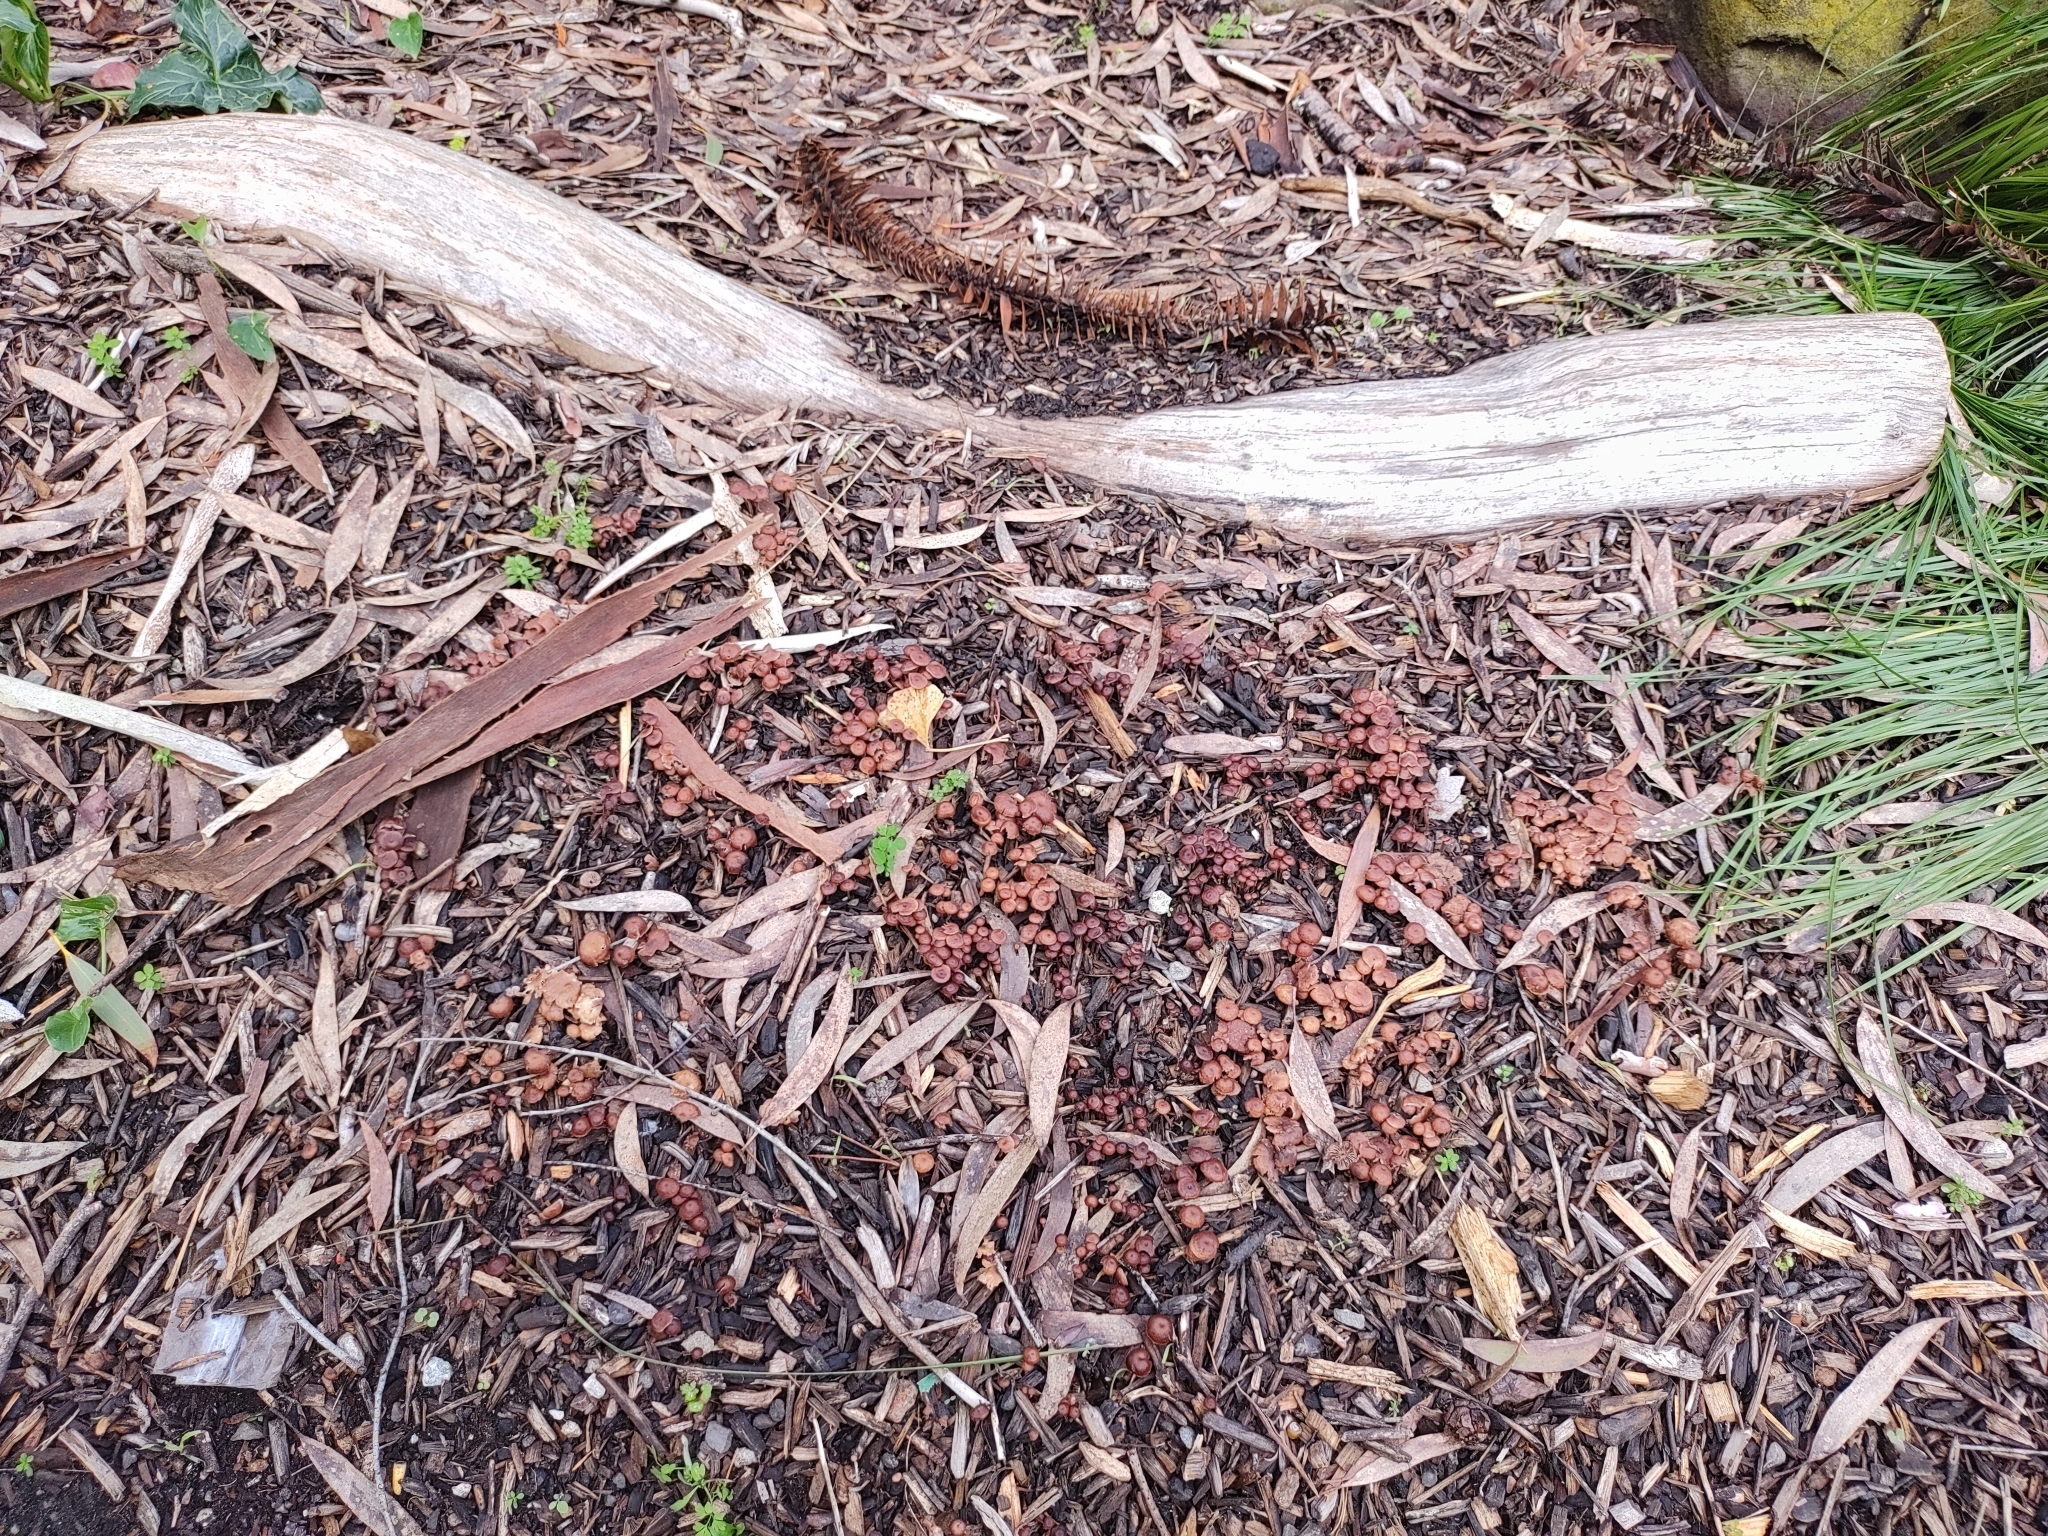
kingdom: Fungi
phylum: Basidiomycota
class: Agaricomycetes
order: Agaricales
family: Omphalotaceae
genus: Collybiopsis
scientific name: Collybiopsis villosipes
